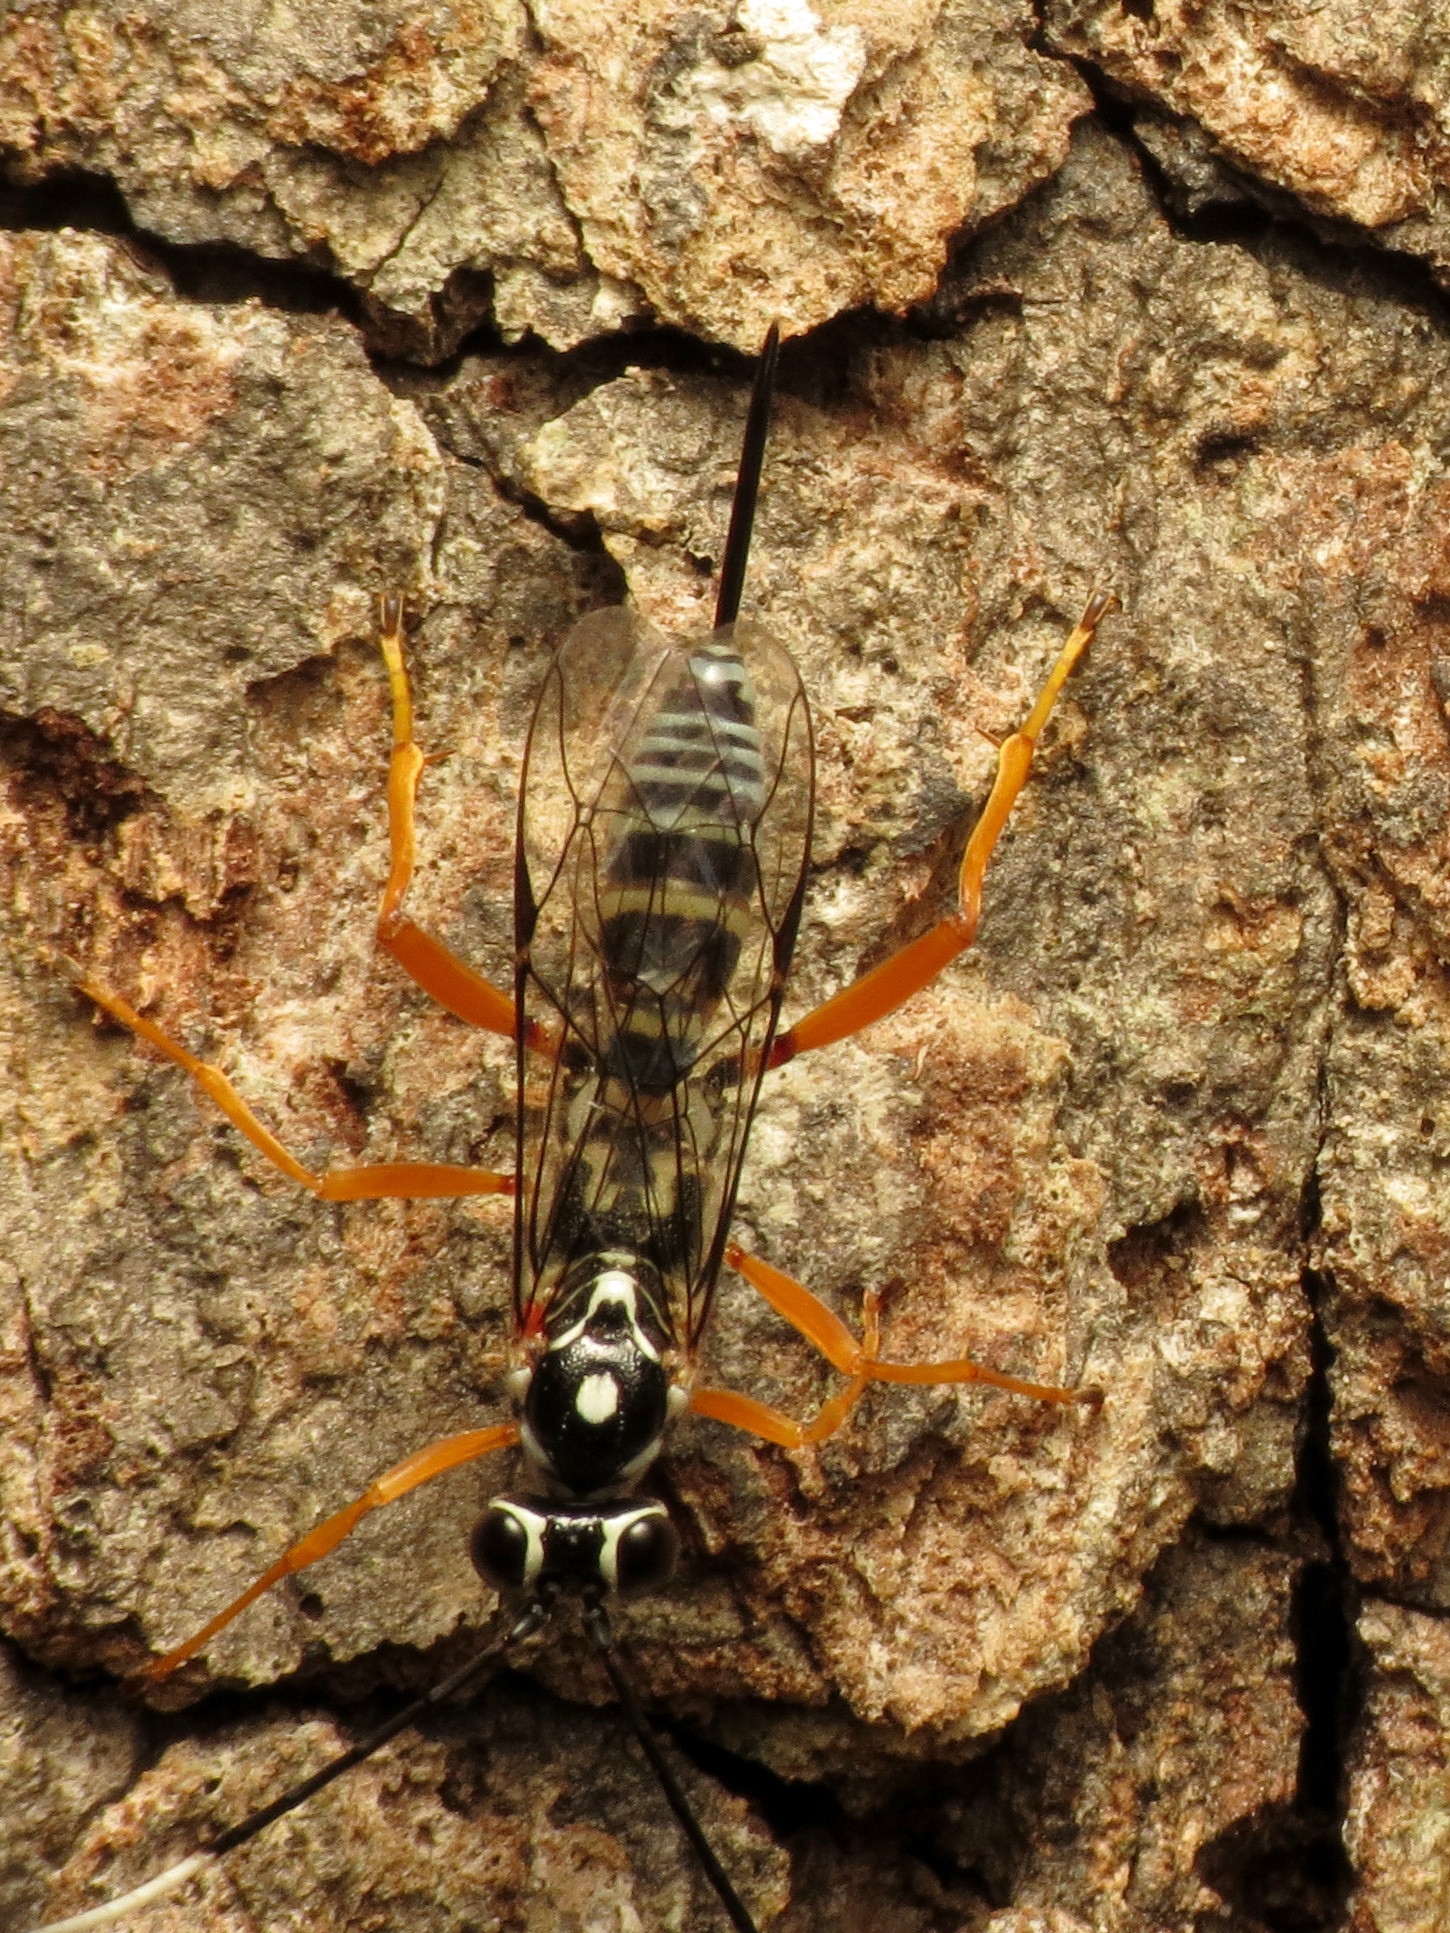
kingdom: Animalia
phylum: Arthropoda
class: Insecta
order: Hymenoptera
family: Ichneumonidae
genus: Cryptanura
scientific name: Cryptanura septentrionalis
